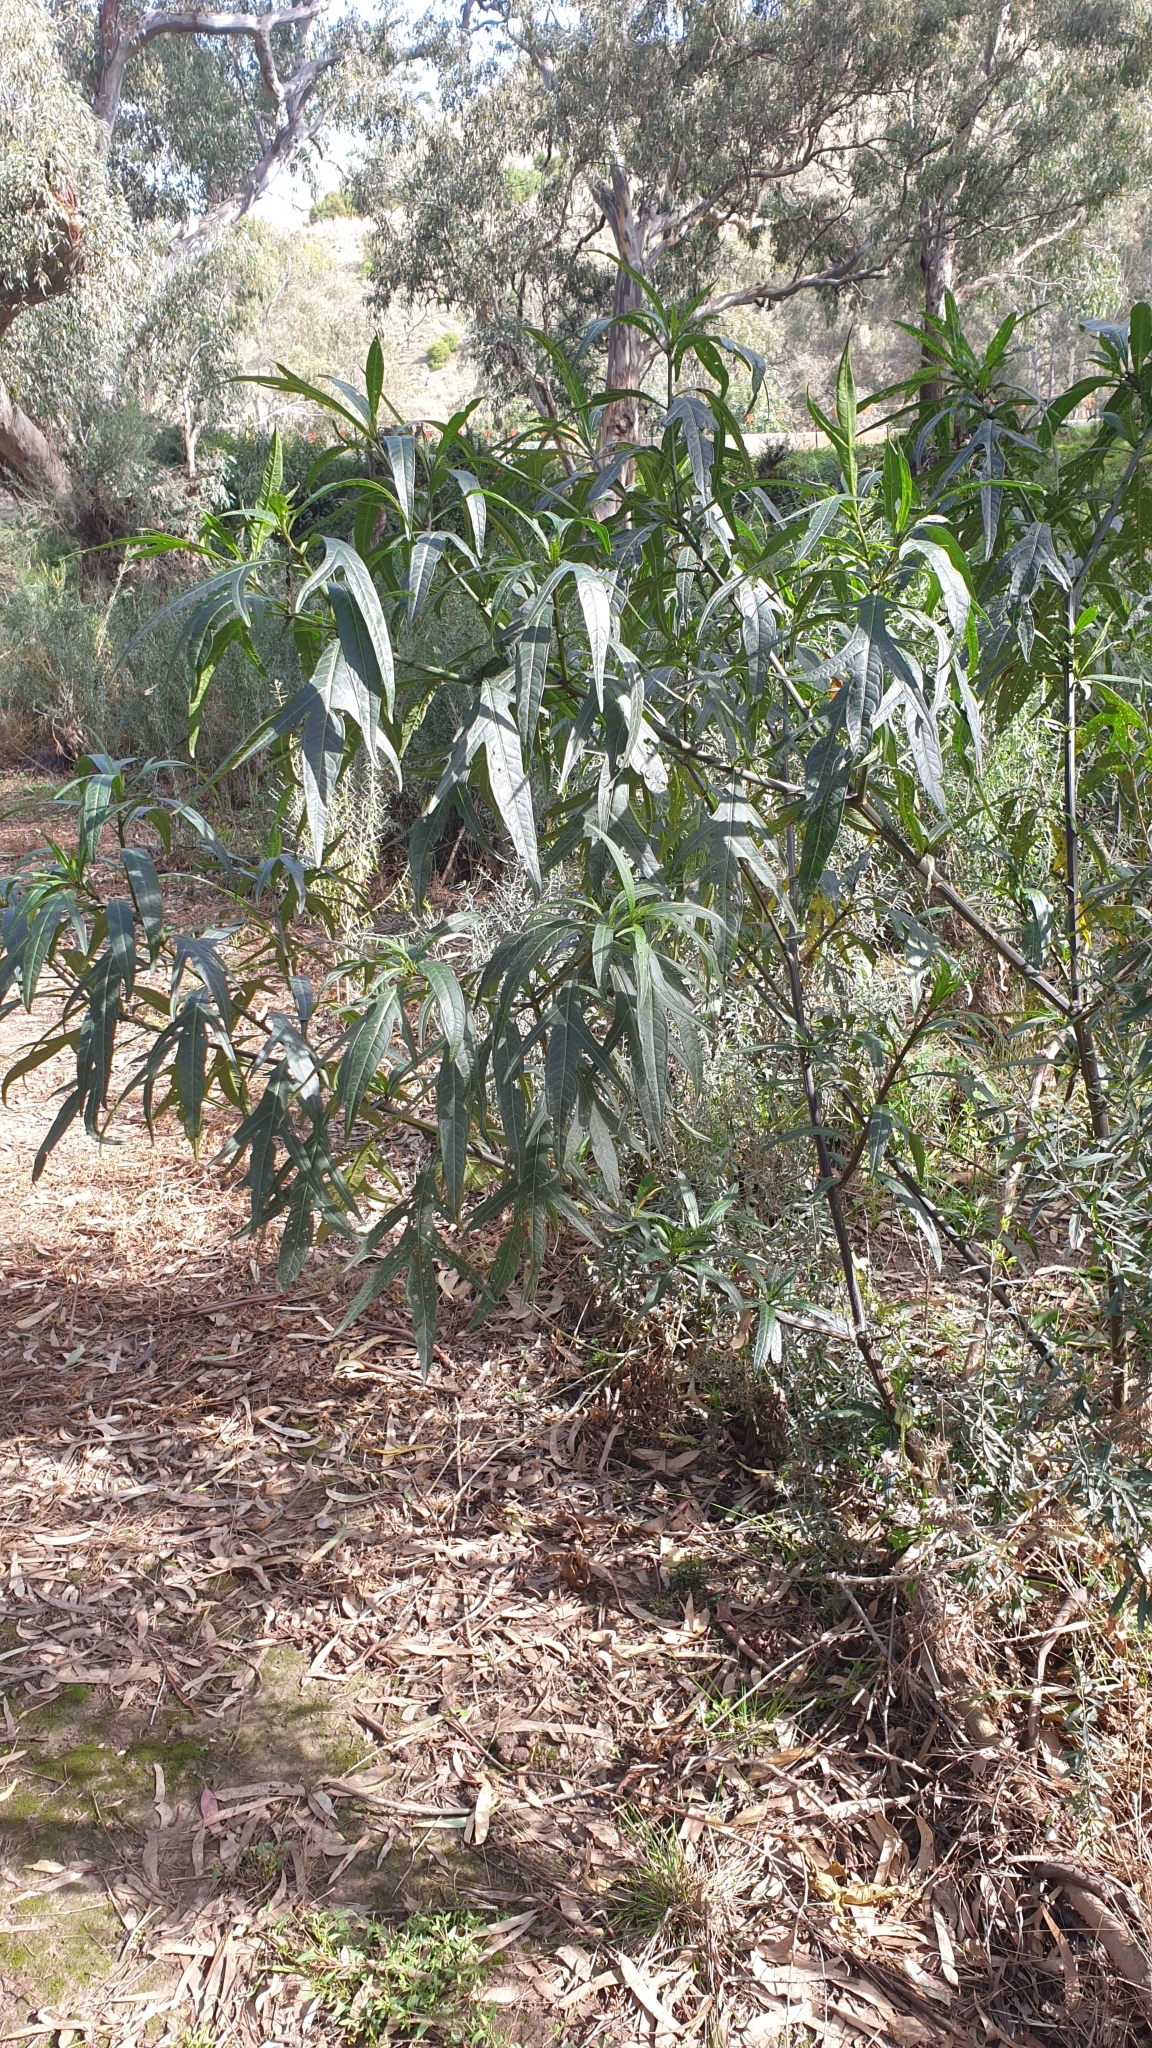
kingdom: Plantae
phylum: Tracheophyta
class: Magnoliopsida
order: Solanales
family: Solanaceae
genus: Solanum
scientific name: Solanum
